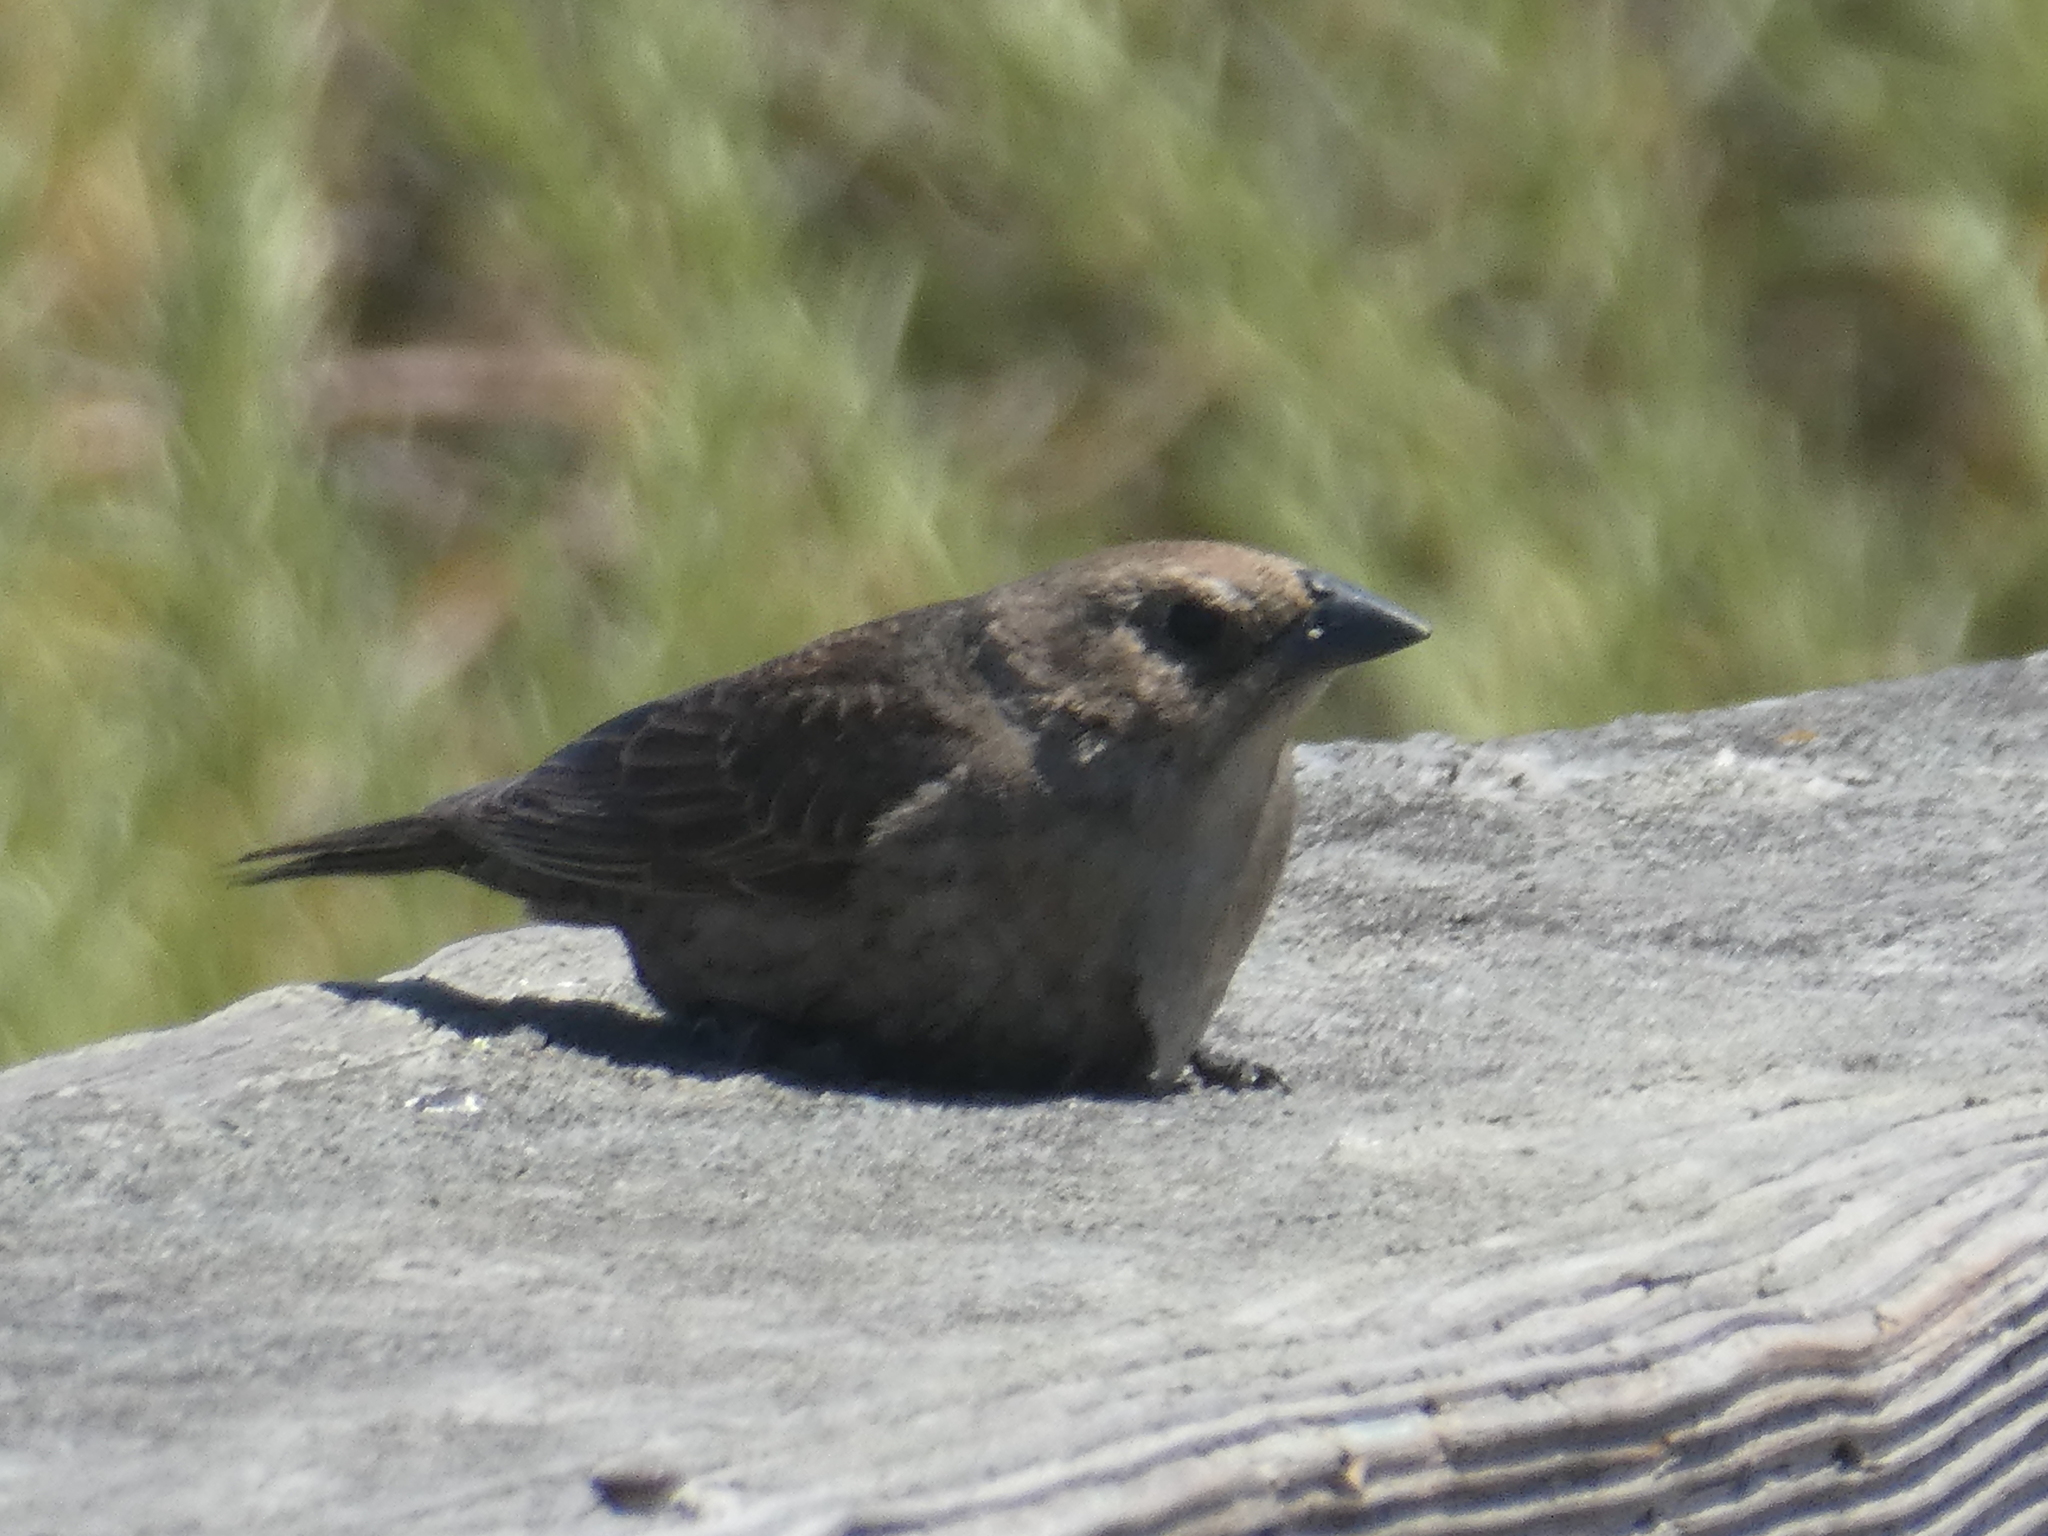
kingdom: Animalia
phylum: Chordata
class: Aves
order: Passeriformes
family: Icteridae
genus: Molothrus
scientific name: Molothrus ater
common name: Brown-headed cowbird
